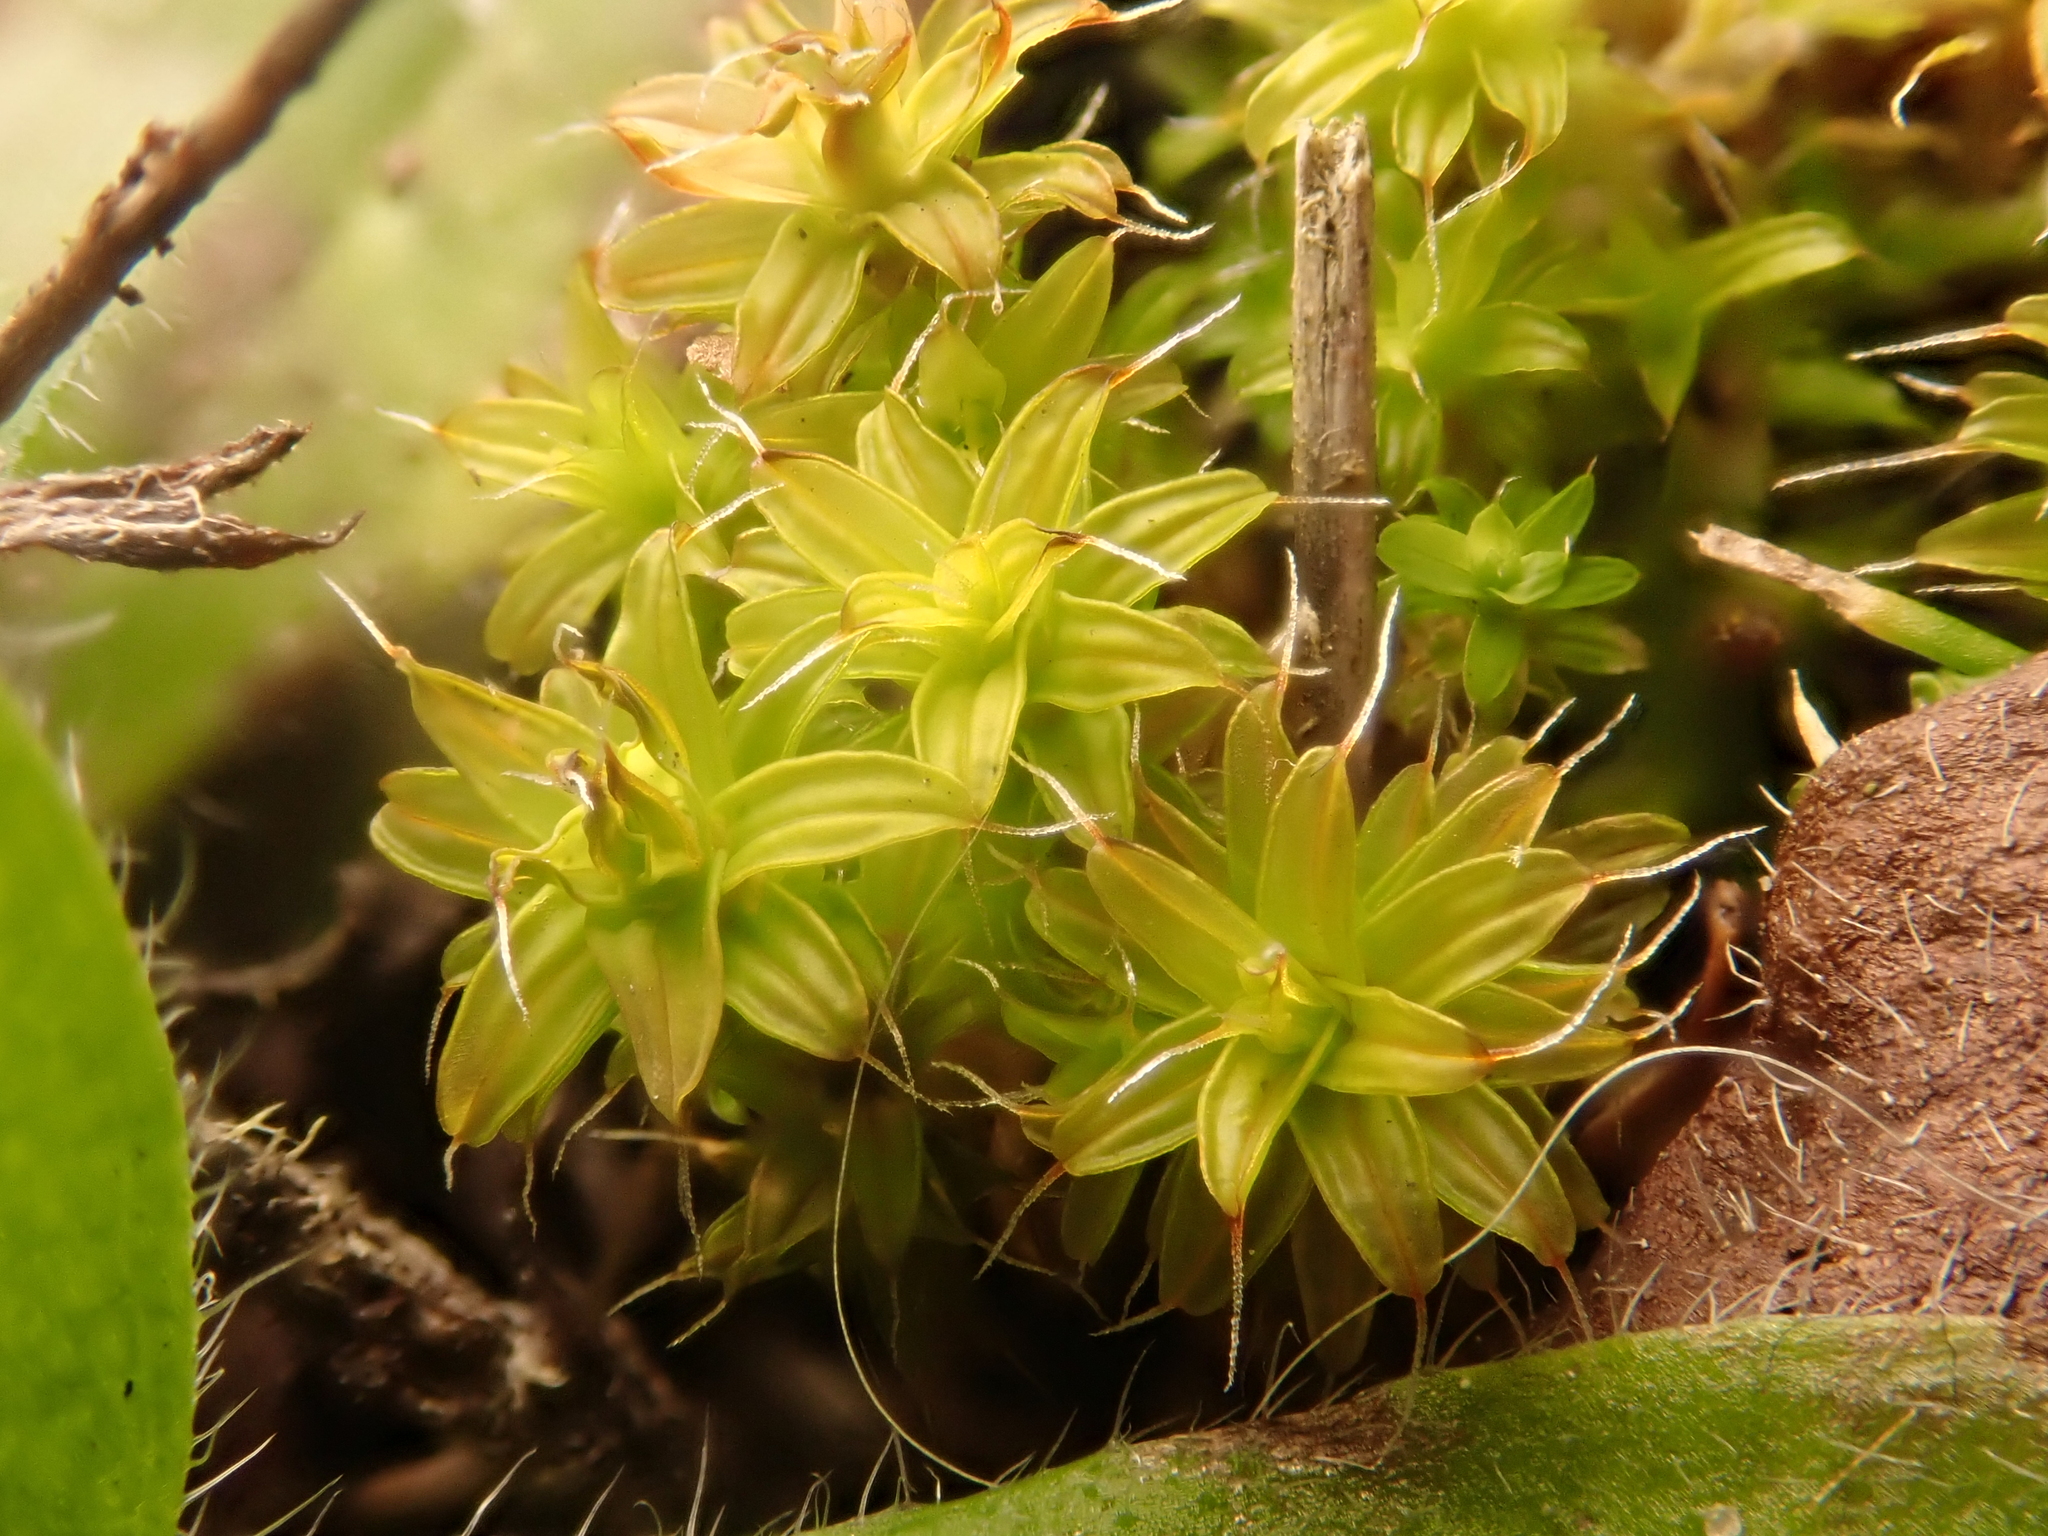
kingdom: Plantae
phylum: Bryophyta
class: Bryopsida
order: Pottiales
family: Pottiaceae
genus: Syntrichia
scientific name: Syntrichia ruralis
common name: Sidewalk screw moss
